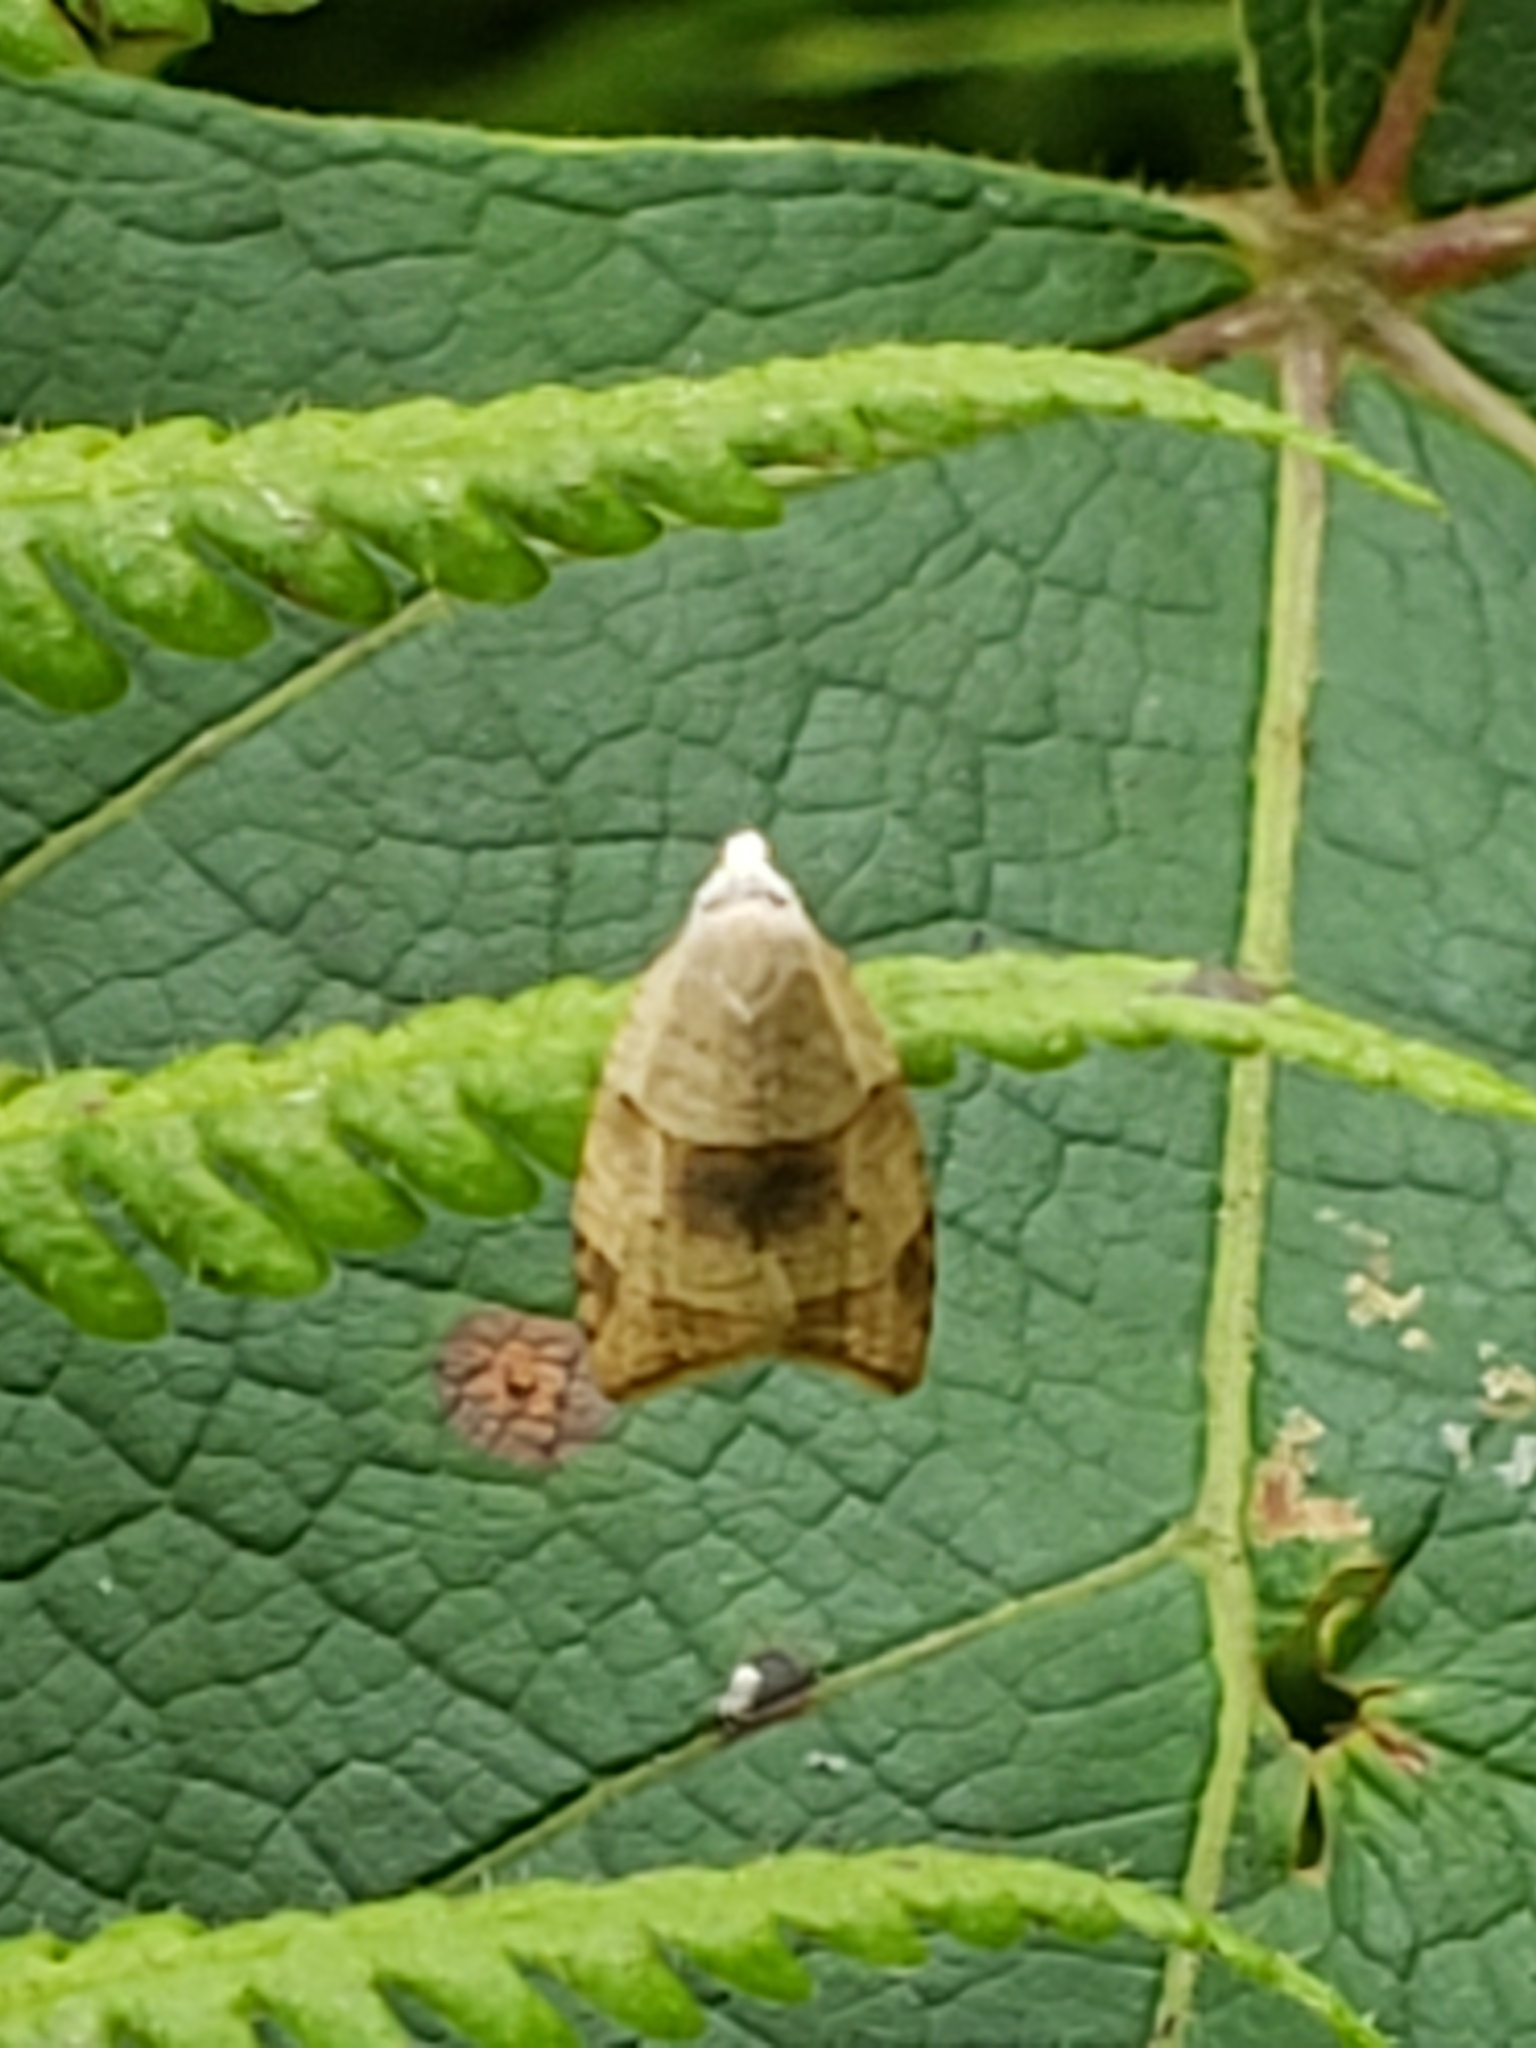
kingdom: Animalia
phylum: Arthropoda
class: Insecta
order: Lepidoptera
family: Tortricidae
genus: Coelostathma
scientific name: Coelostathma discopunctana
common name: Batman moth
